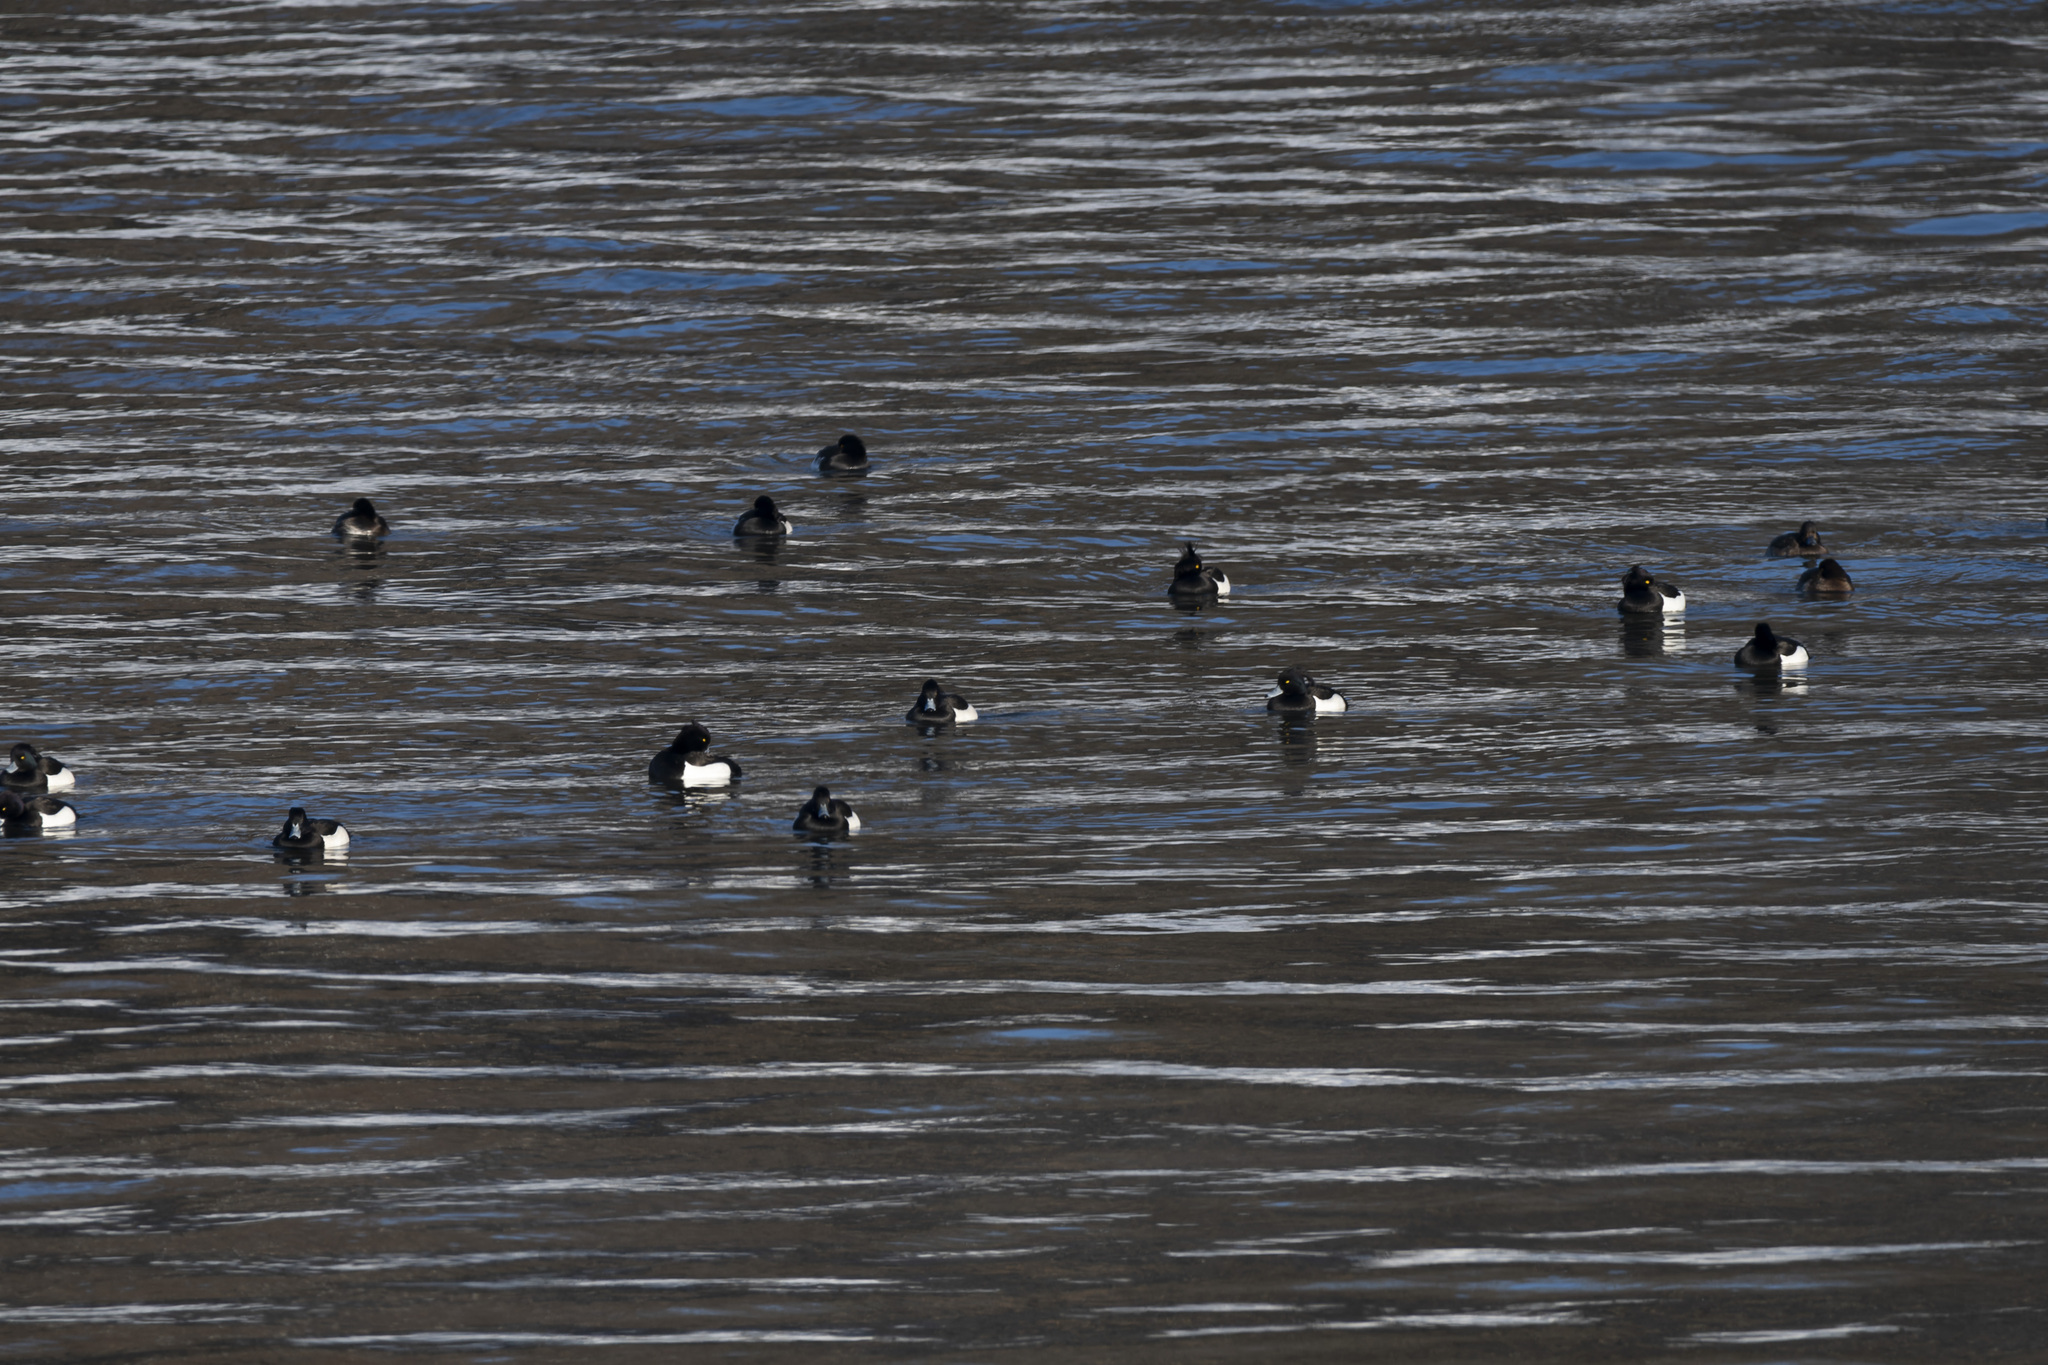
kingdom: Animalia
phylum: Chordata
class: Aves
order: Anseriformes
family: Anatidae
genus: Aythya
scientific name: Aythya fuligula
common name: Tufted duck
